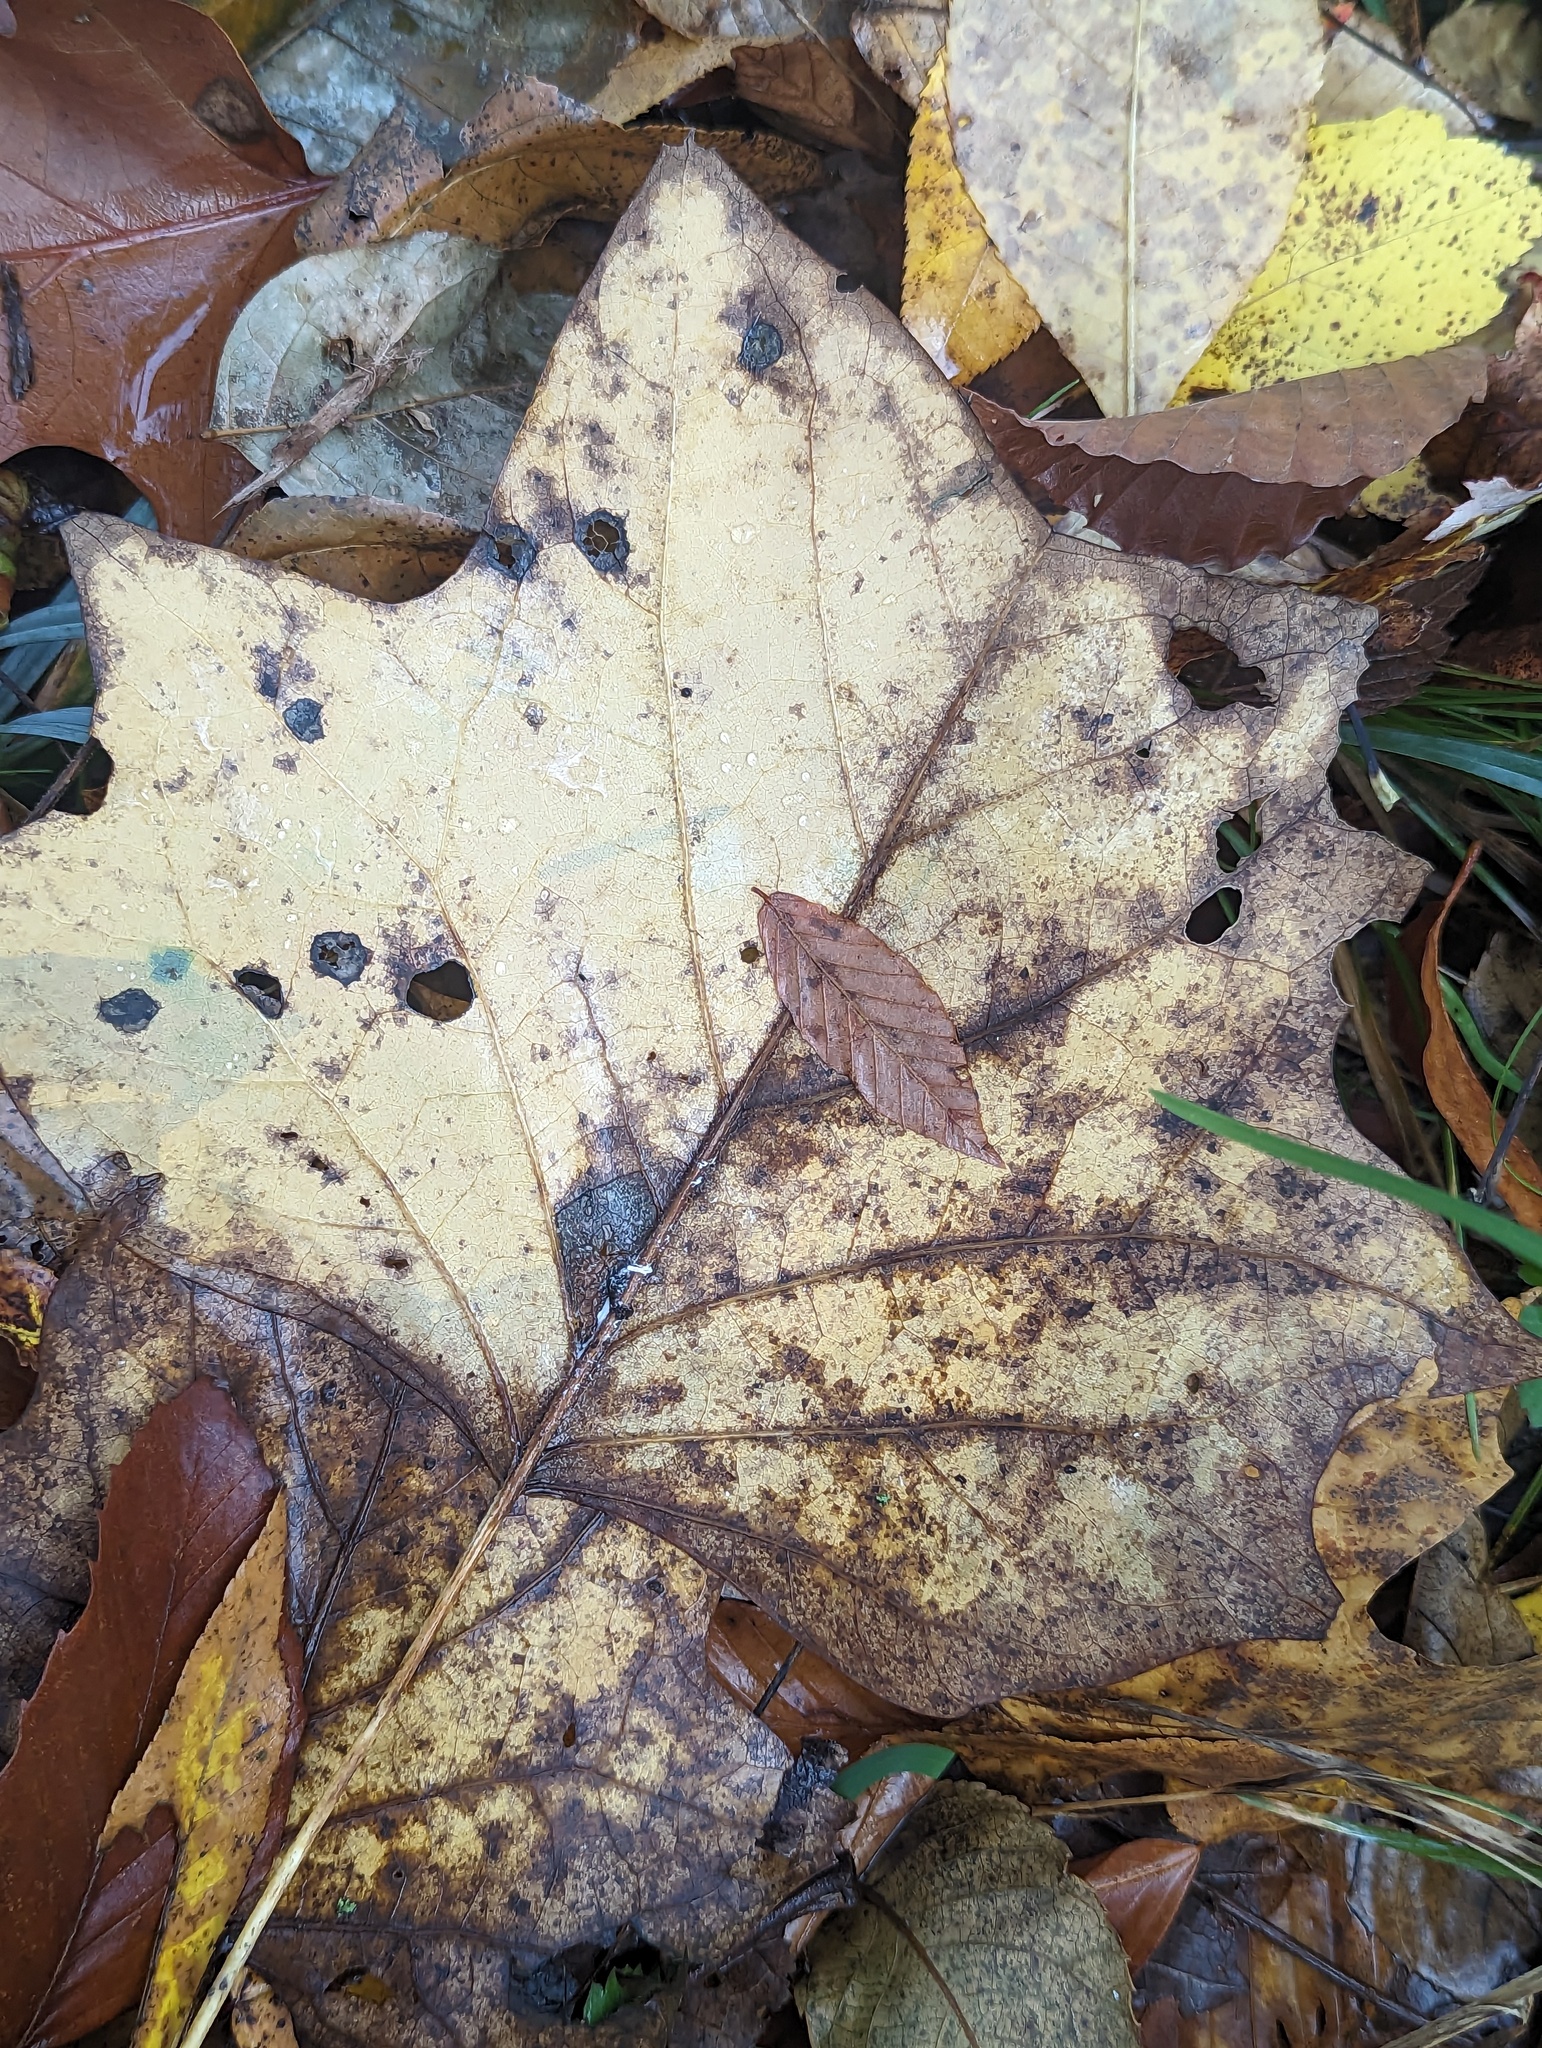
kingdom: Plantae
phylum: Tracheophyta
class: Magnoliopsida
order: Magnoliales
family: Magnoliaceae
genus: Liriodendron
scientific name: Liriodendron tulipifera
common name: Tulip tree
